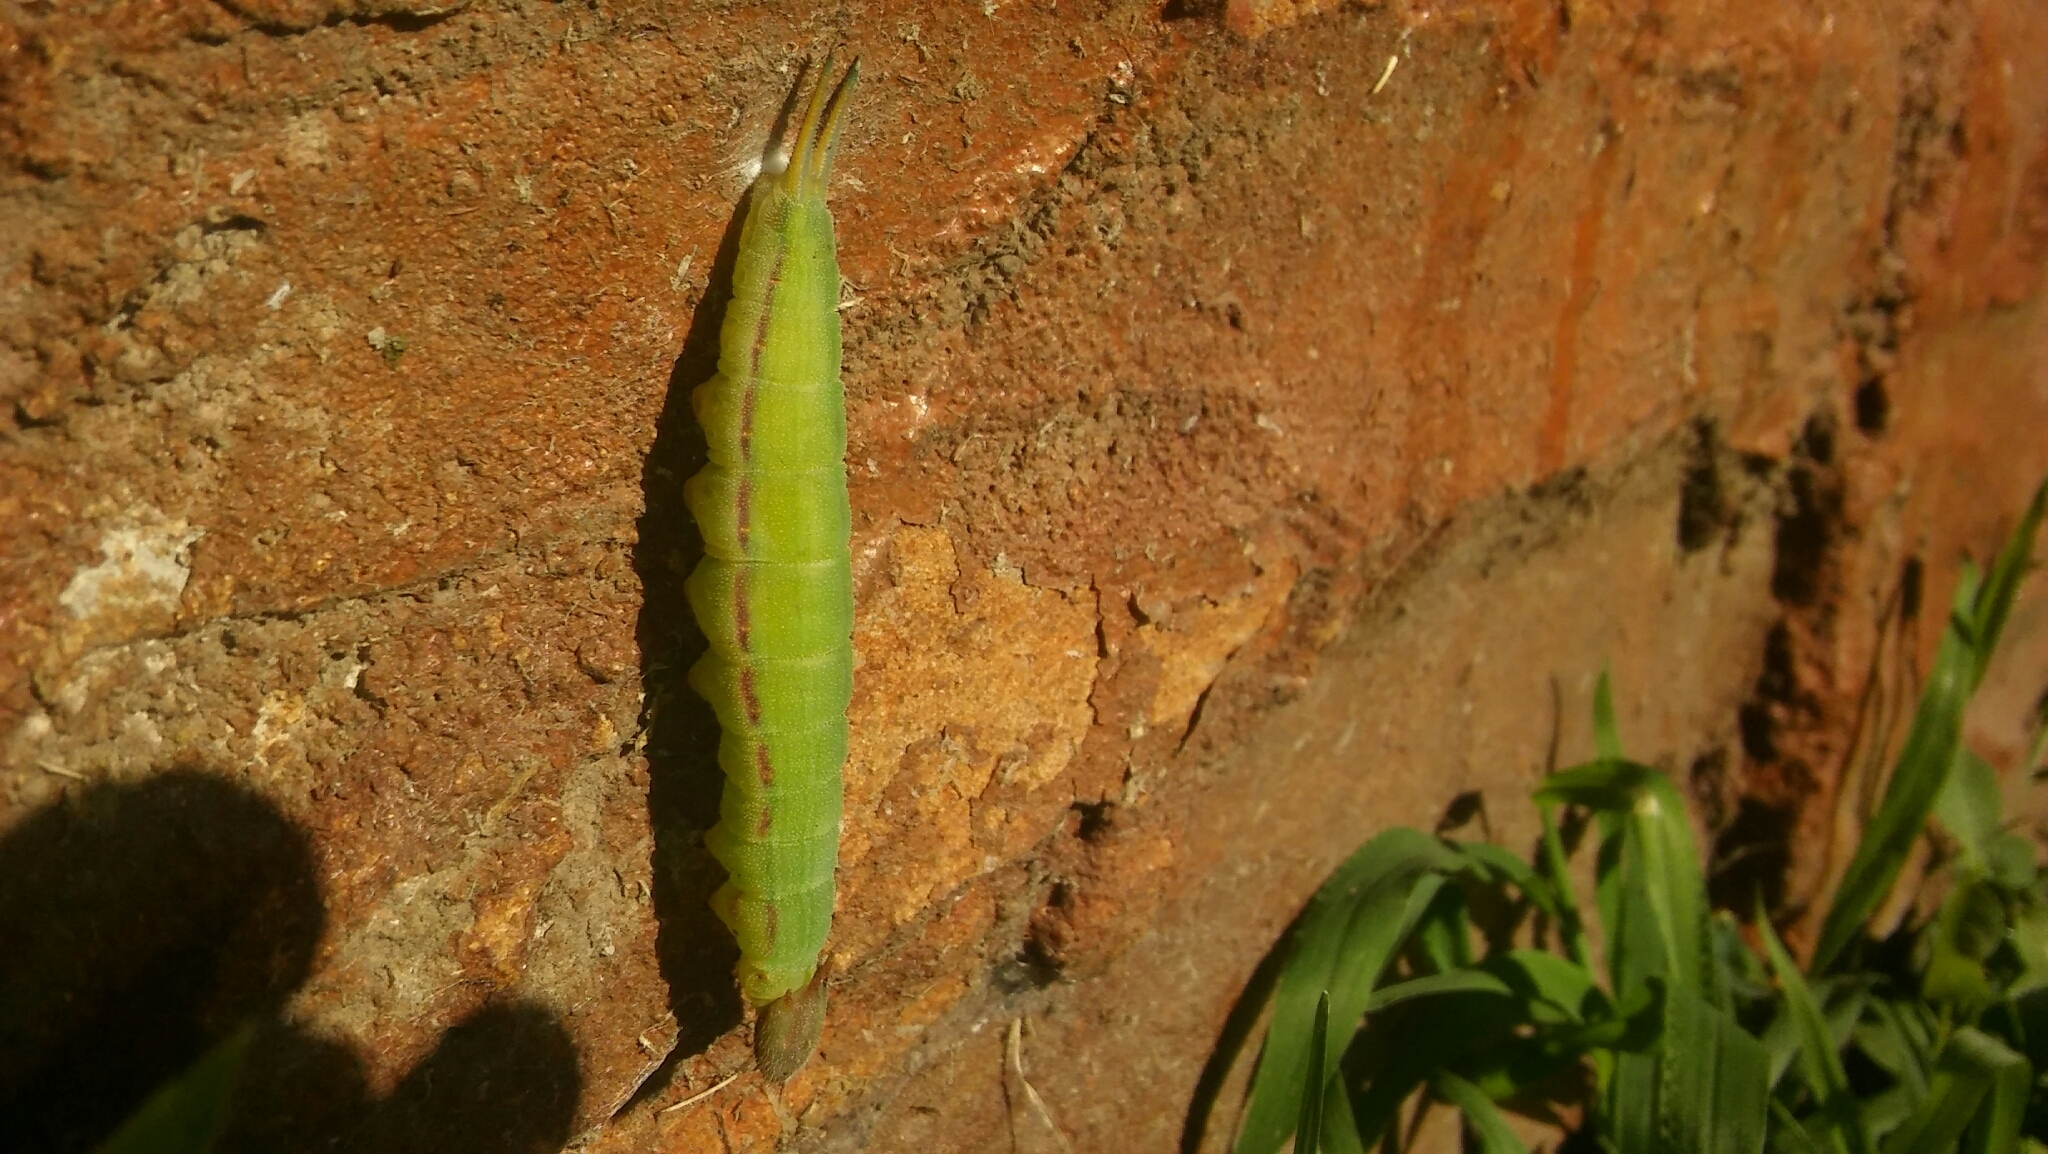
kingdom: Animalia
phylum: Arthropoda
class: Insecta
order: Lepidoptera
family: Nymphalidae
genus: Opsiphanes
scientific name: Opsiphanes invirae
